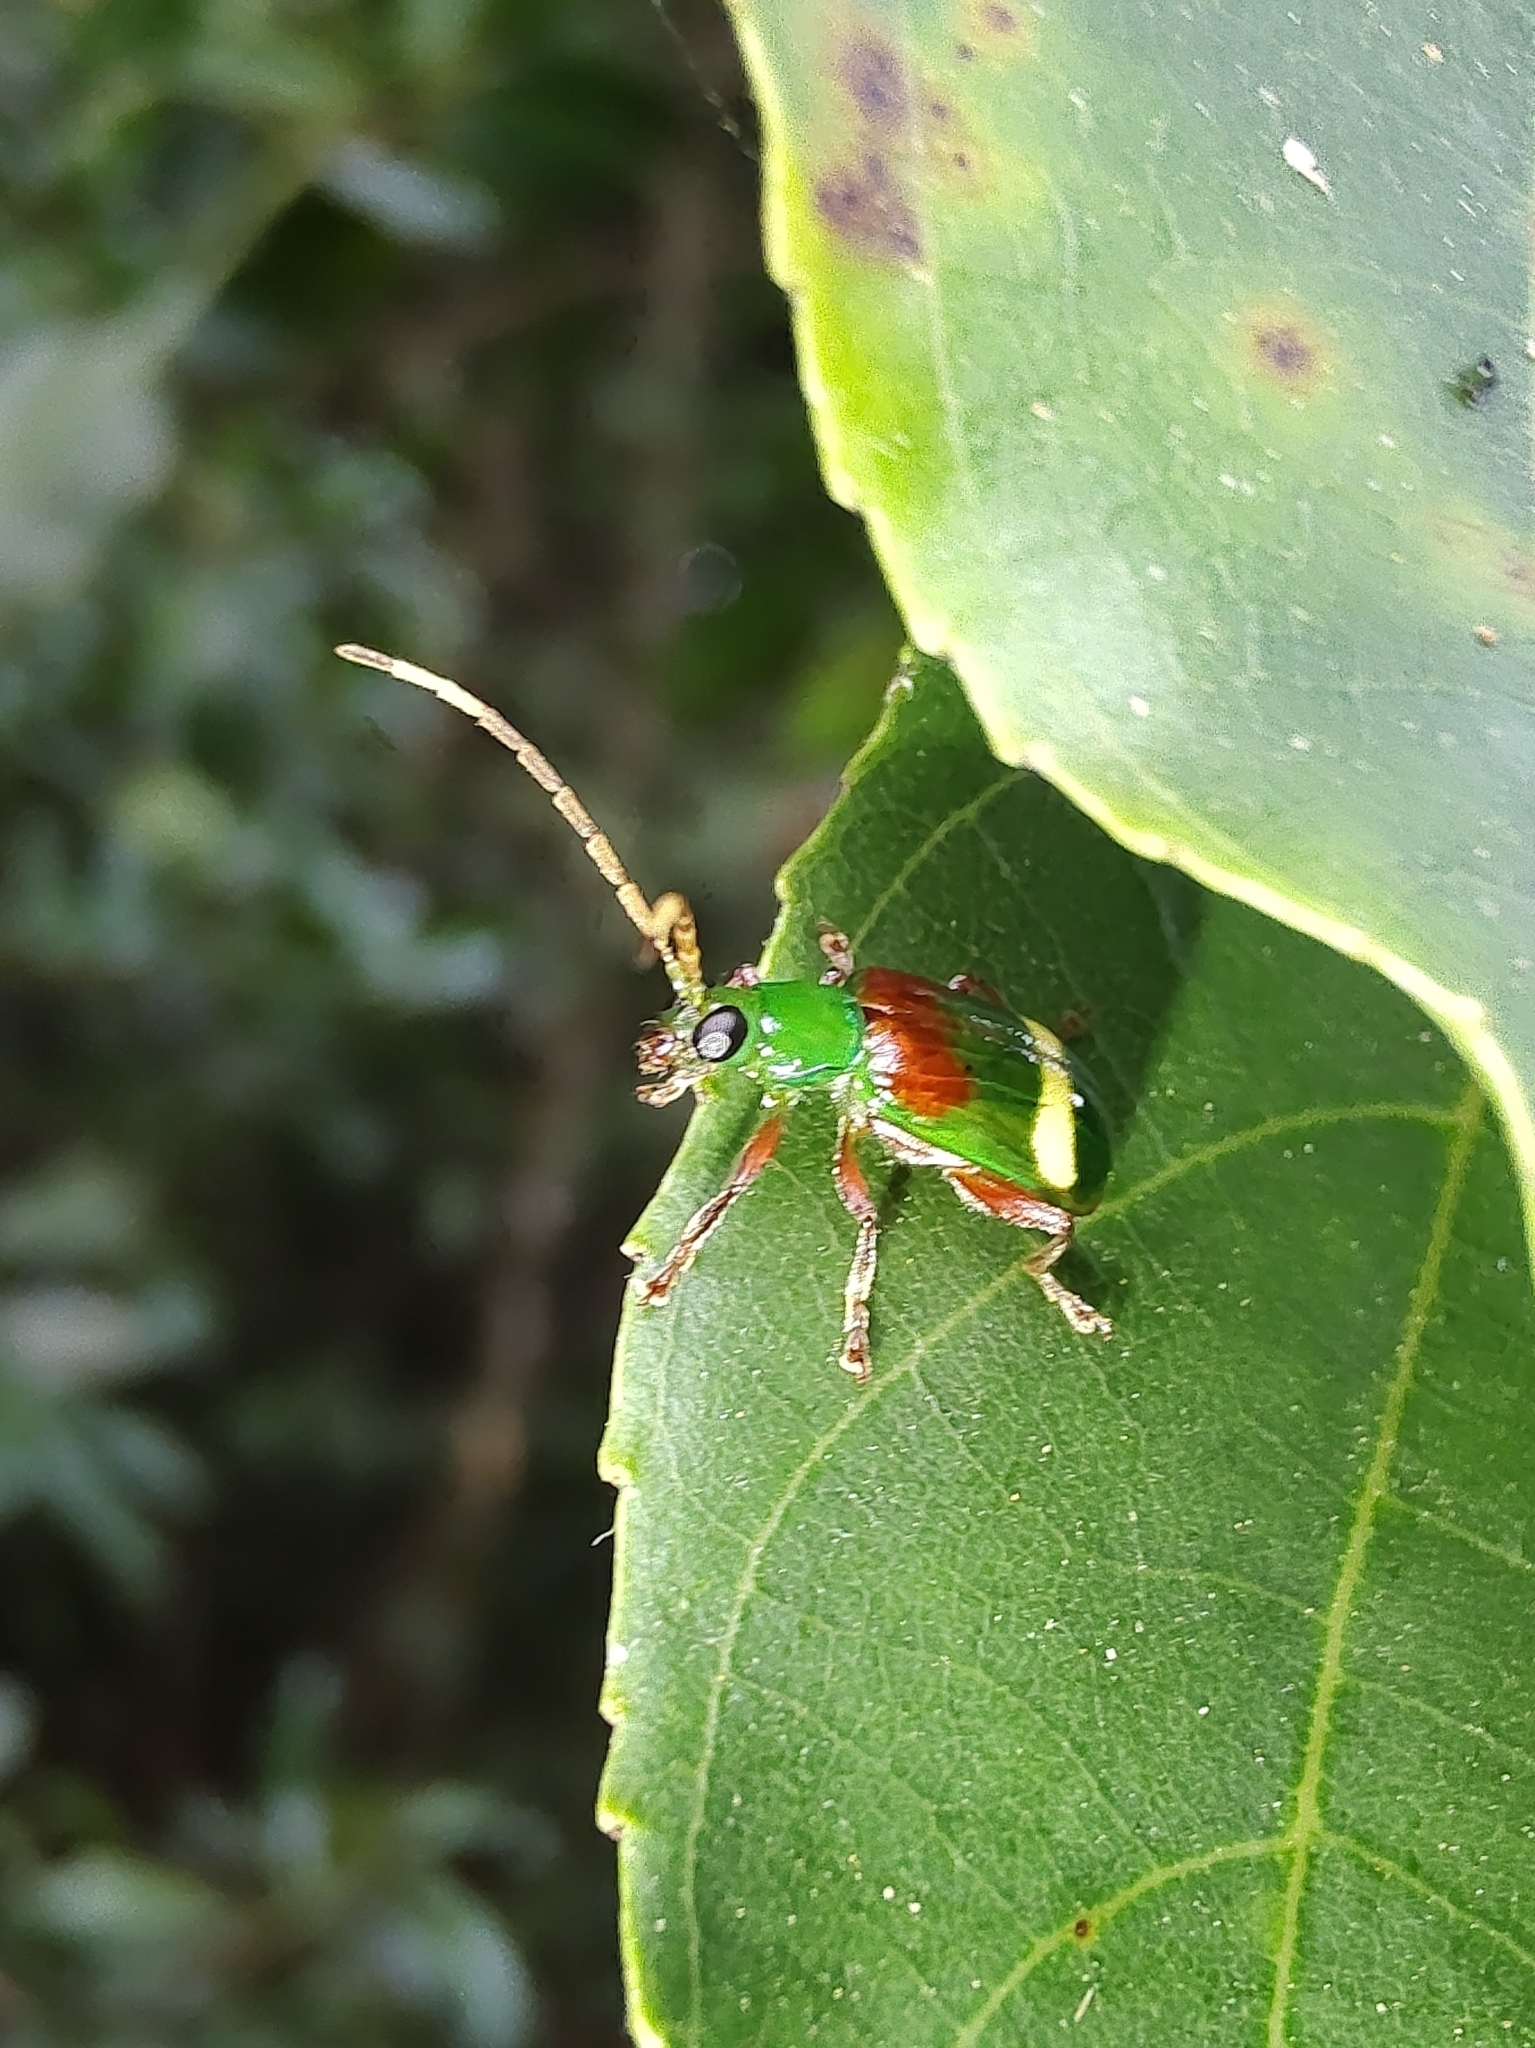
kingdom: Animalia
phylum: Arthropoda
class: Insecta
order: Coleoptera
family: Chrysomelidae
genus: Charidotella
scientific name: Charidotella amoenula
